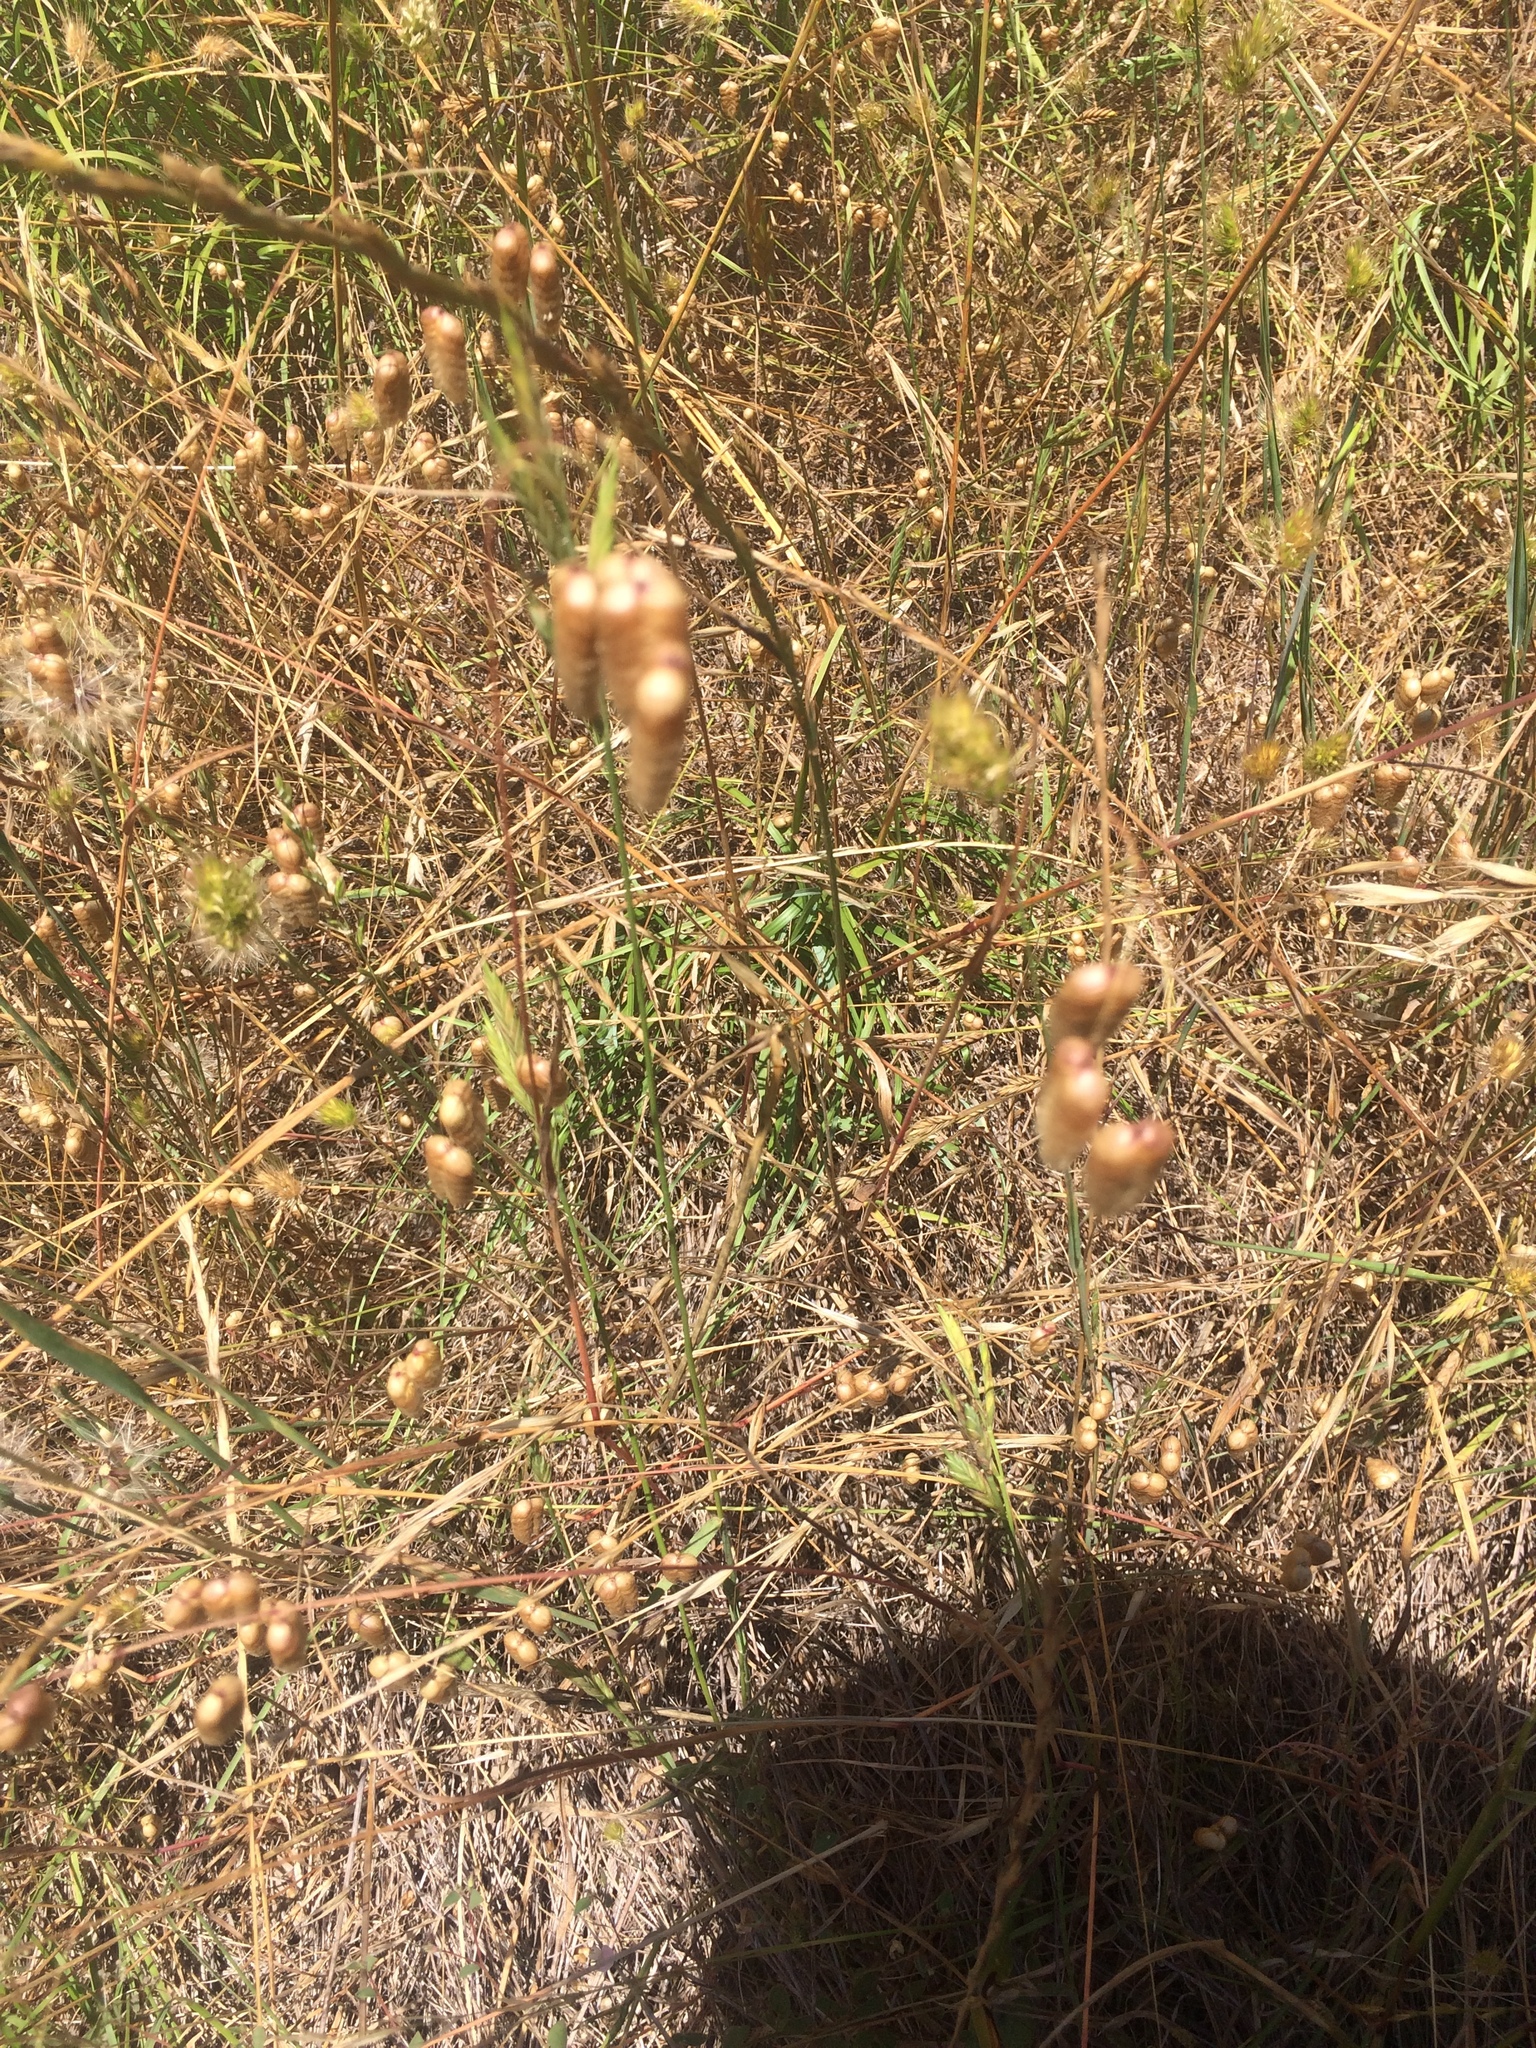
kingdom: Plantae
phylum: Tracheophyta
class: Liliopsida
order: Poales
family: Poaceae
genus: Briza
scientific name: Briza maxima
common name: Big quakinggrass
